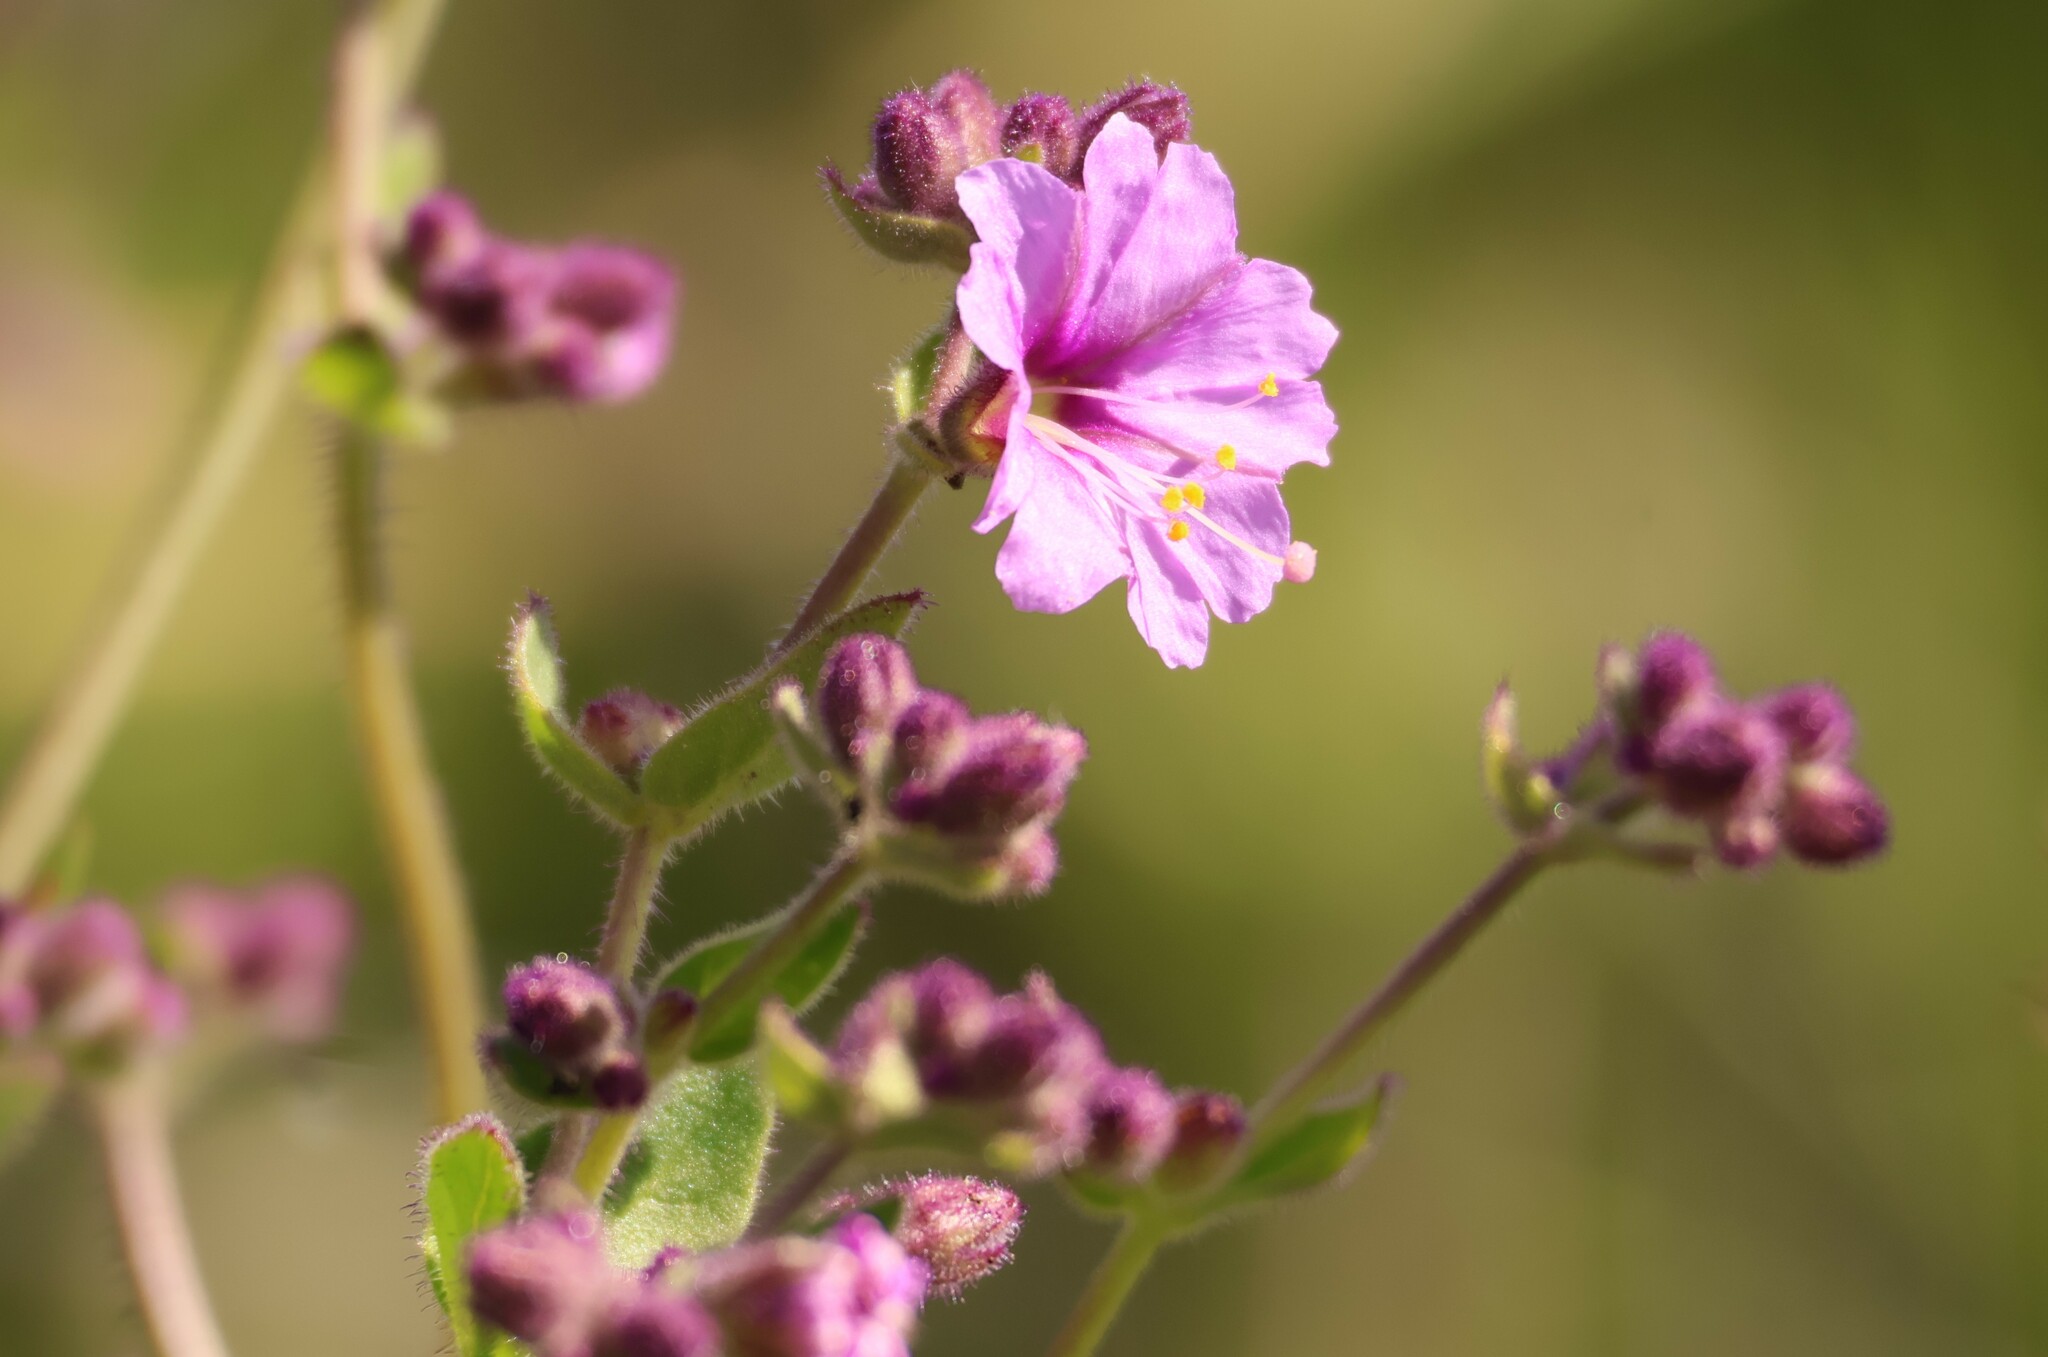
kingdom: Plantae
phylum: Tracheophyta
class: Magnoliopsida
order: Caryophyllales
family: Nyctaginaceae
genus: Mirabilis
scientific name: Mirabilis laevis
